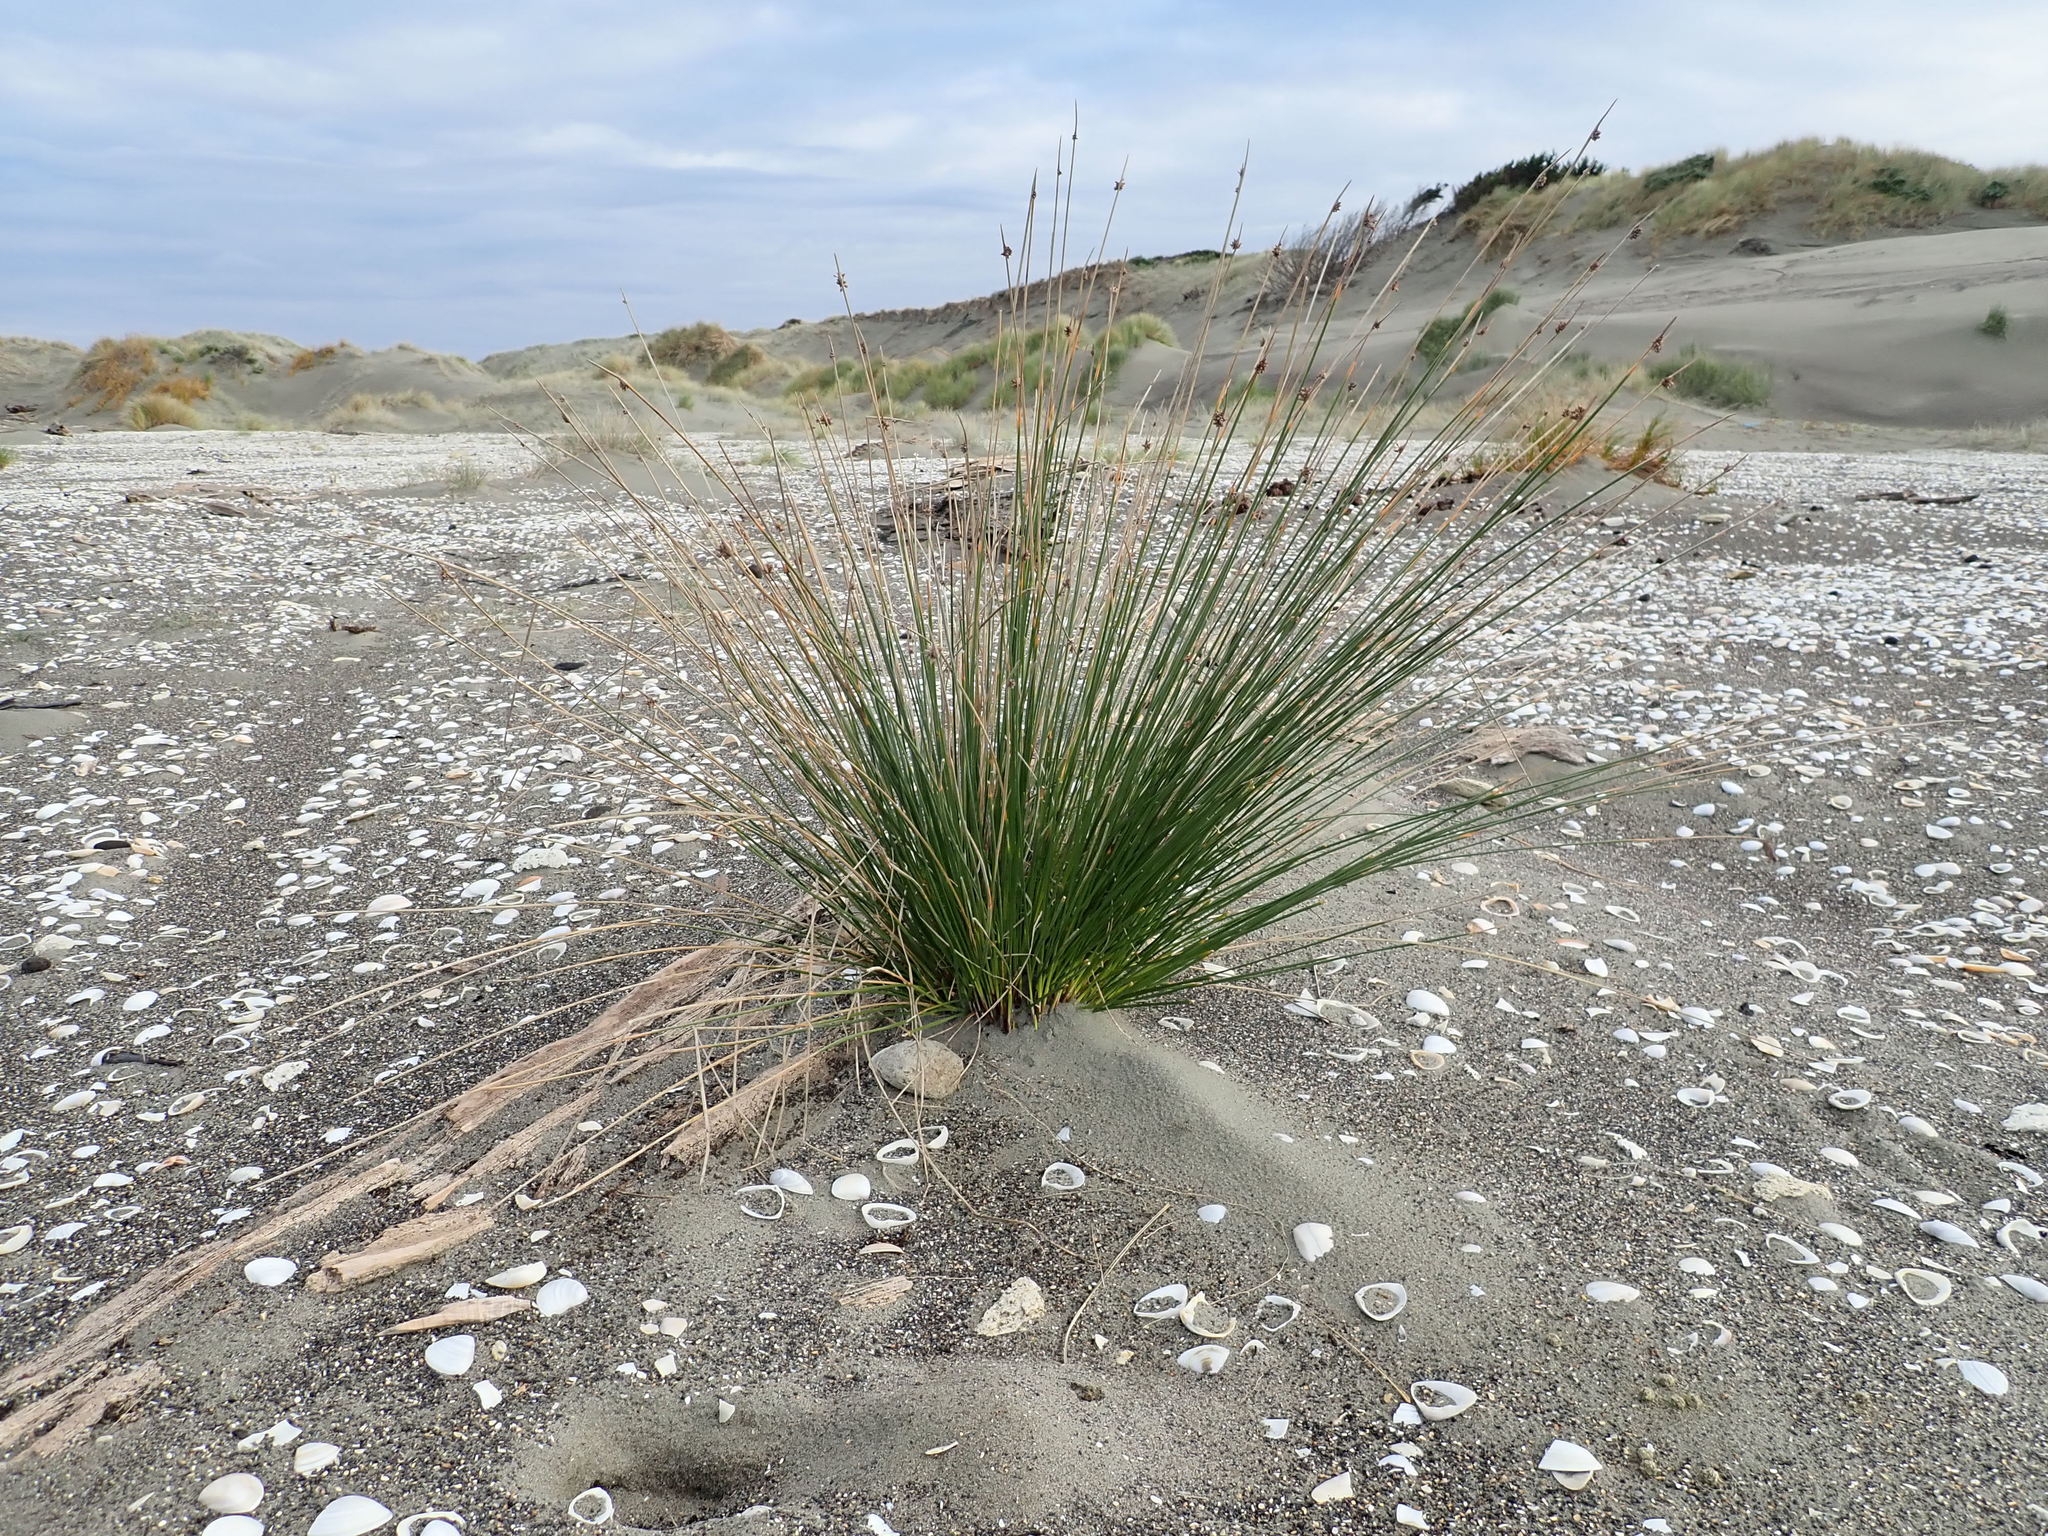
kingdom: Plantae
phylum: Tracheophyta
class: Liliopsida
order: Poales
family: Cyperaceae
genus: Ficinia
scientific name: Ficinia nodosa
